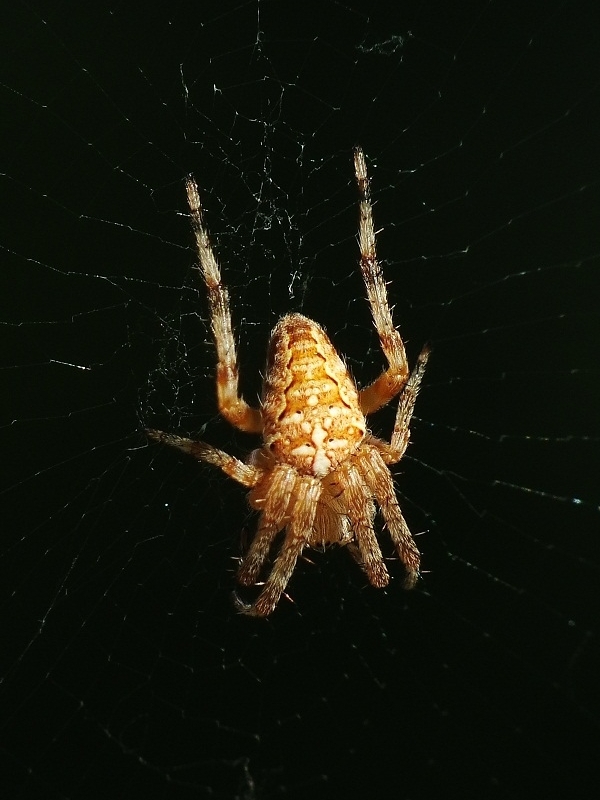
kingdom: Animalia
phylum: Arthropoda
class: Arachnida
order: Araneae
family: Araneidae
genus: Araneus
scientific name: Araneus diadematus
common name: Cross orbweaver
